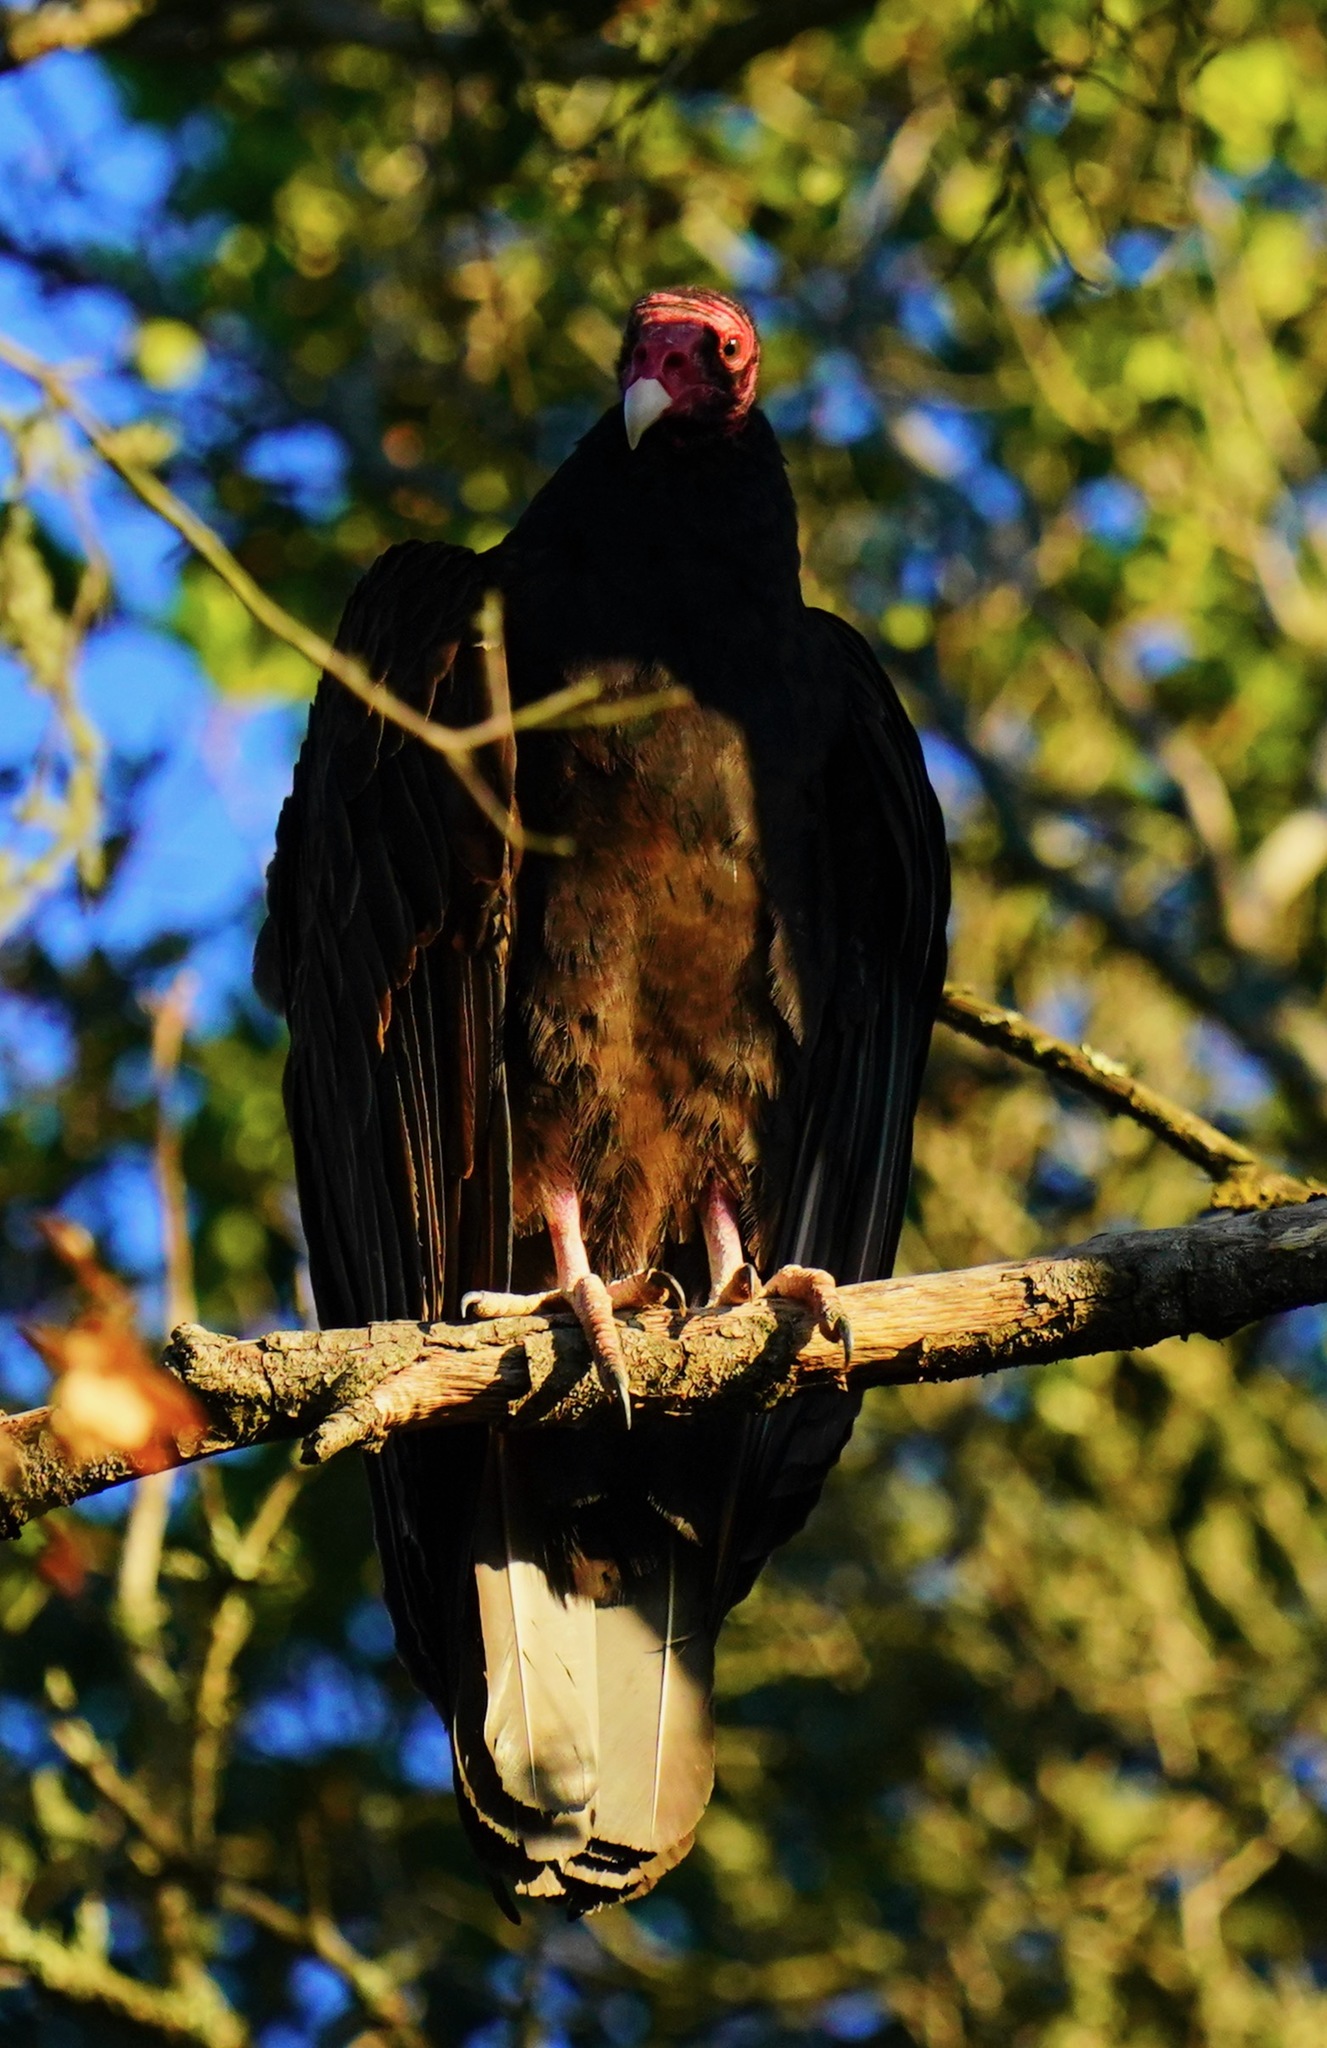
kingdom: Animalia
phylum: Chordata
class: Aves
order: Accipitriformes
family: Cathartidae
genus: Cathartes
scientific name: Cathartes aura
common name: Turkey vulture
